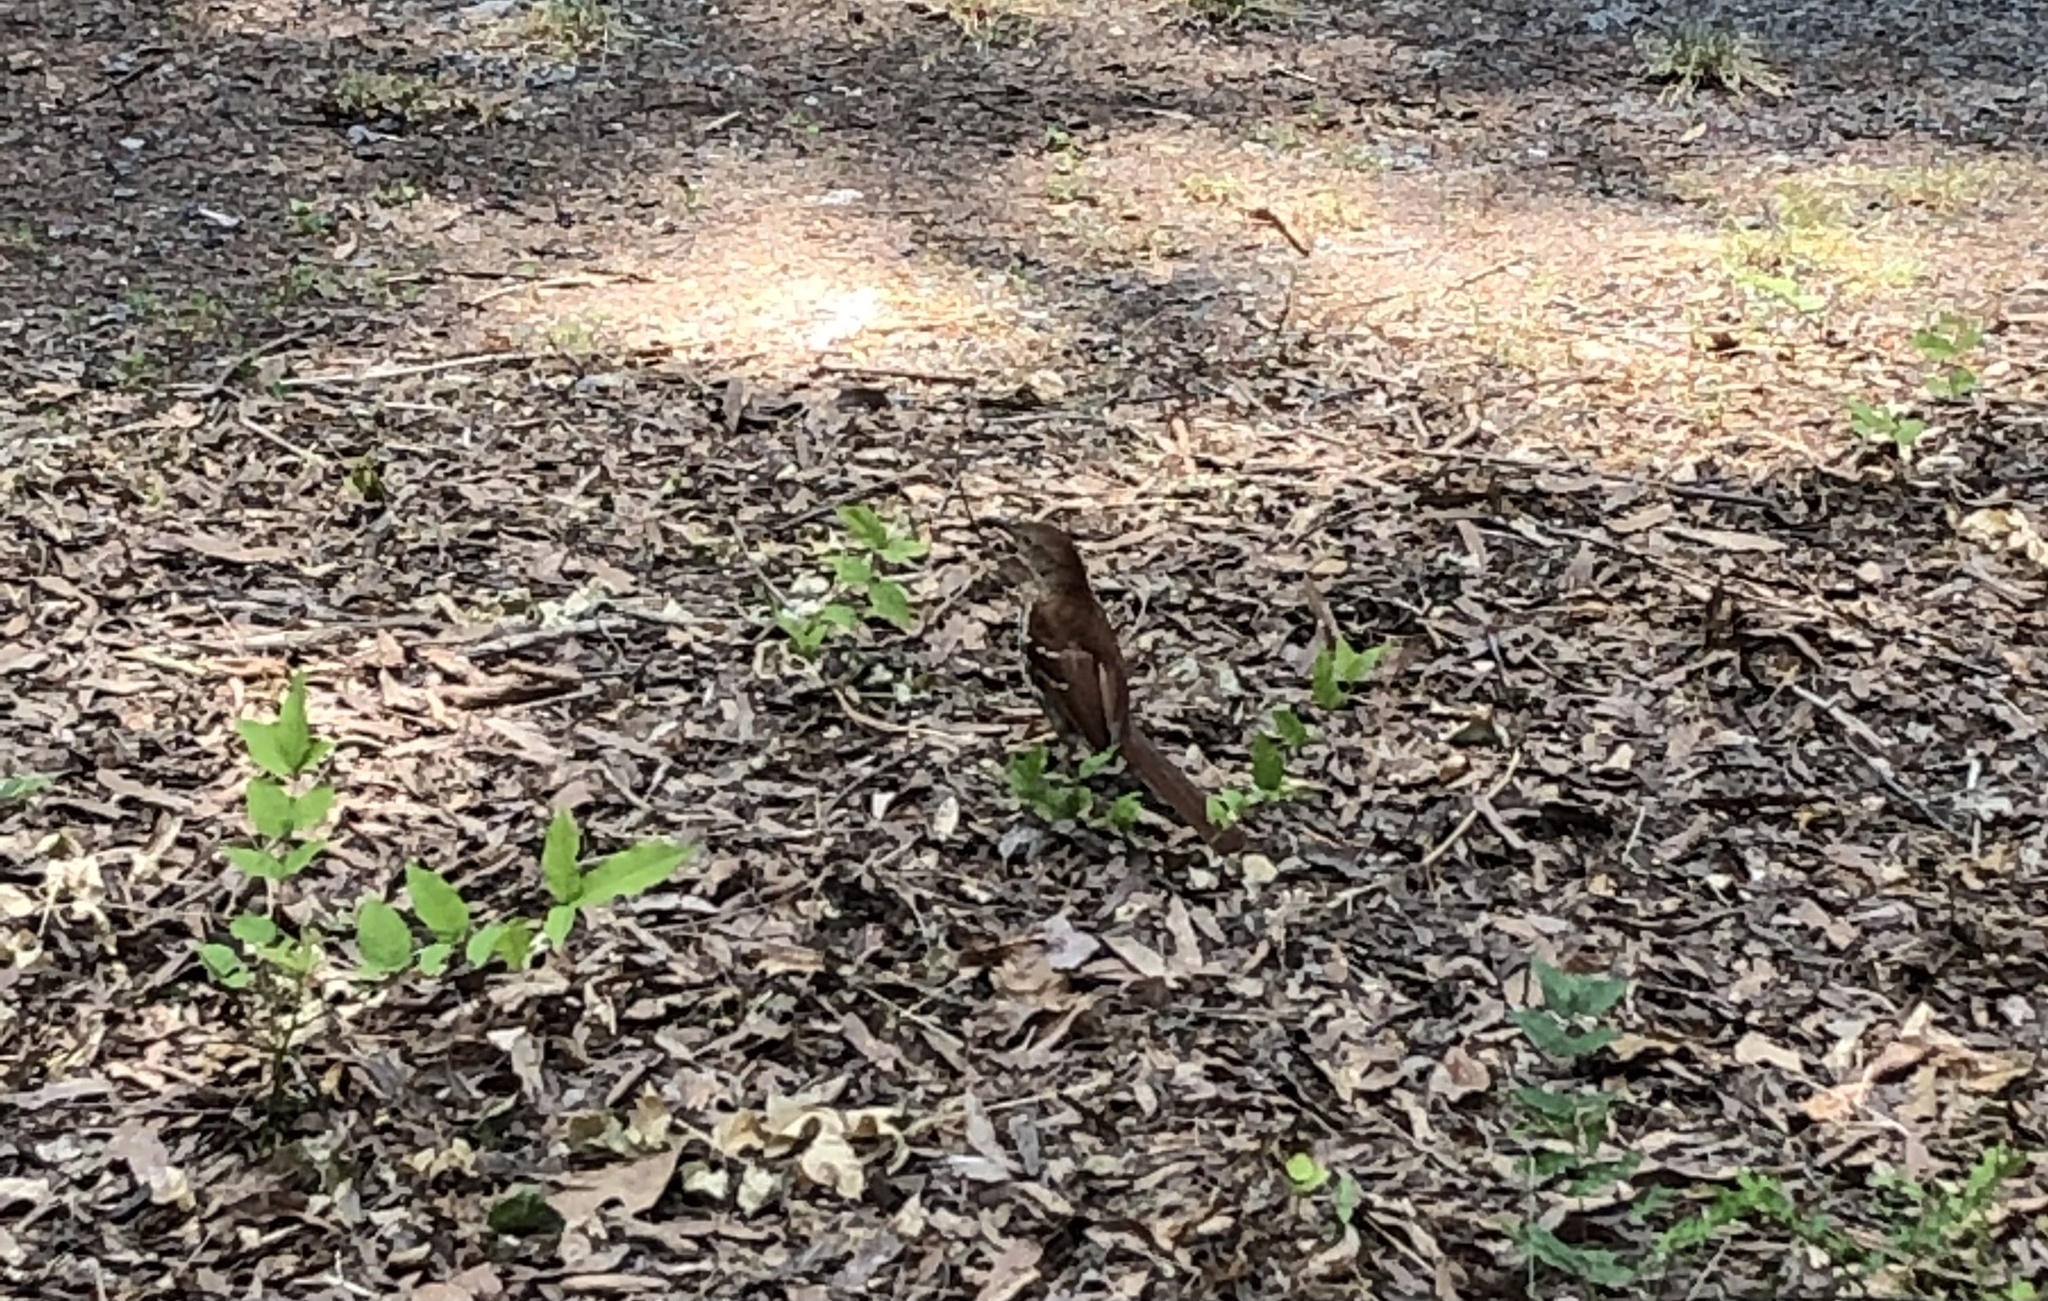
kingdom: Animalia
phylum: Chordata
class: Aves
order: Passeriformes
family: Mimidae
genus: Toxostoma
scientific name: Toxostoma rufum
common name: Brown thrasher
